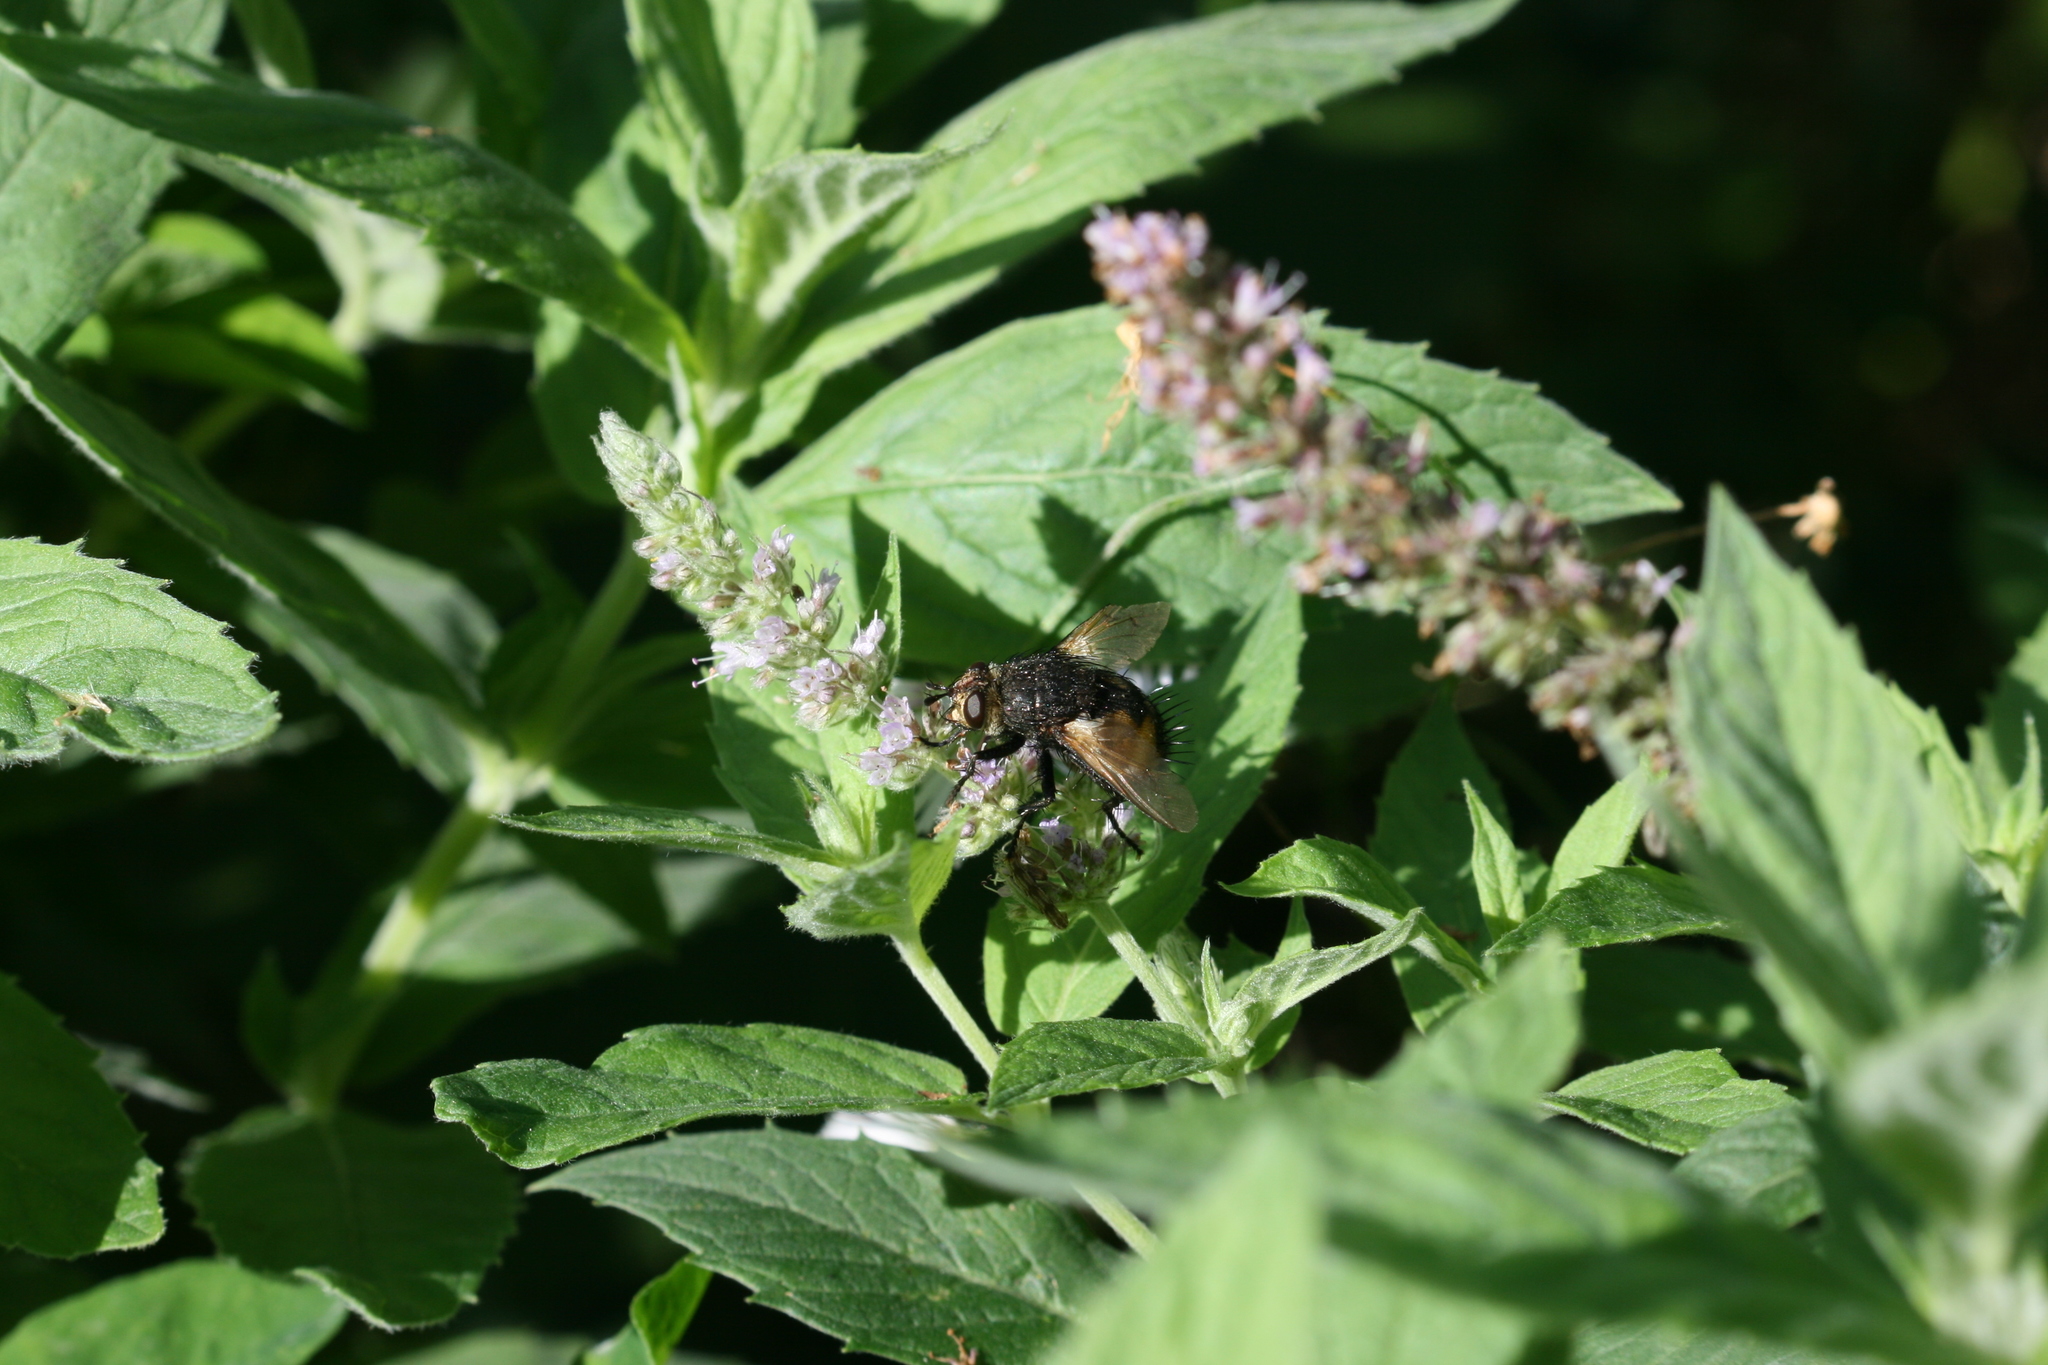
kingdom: Animalia
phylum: Arthropoda
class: Insecta
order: Diptera
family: Tachinidae
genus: Nowickia
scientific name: Nowickia ferox
